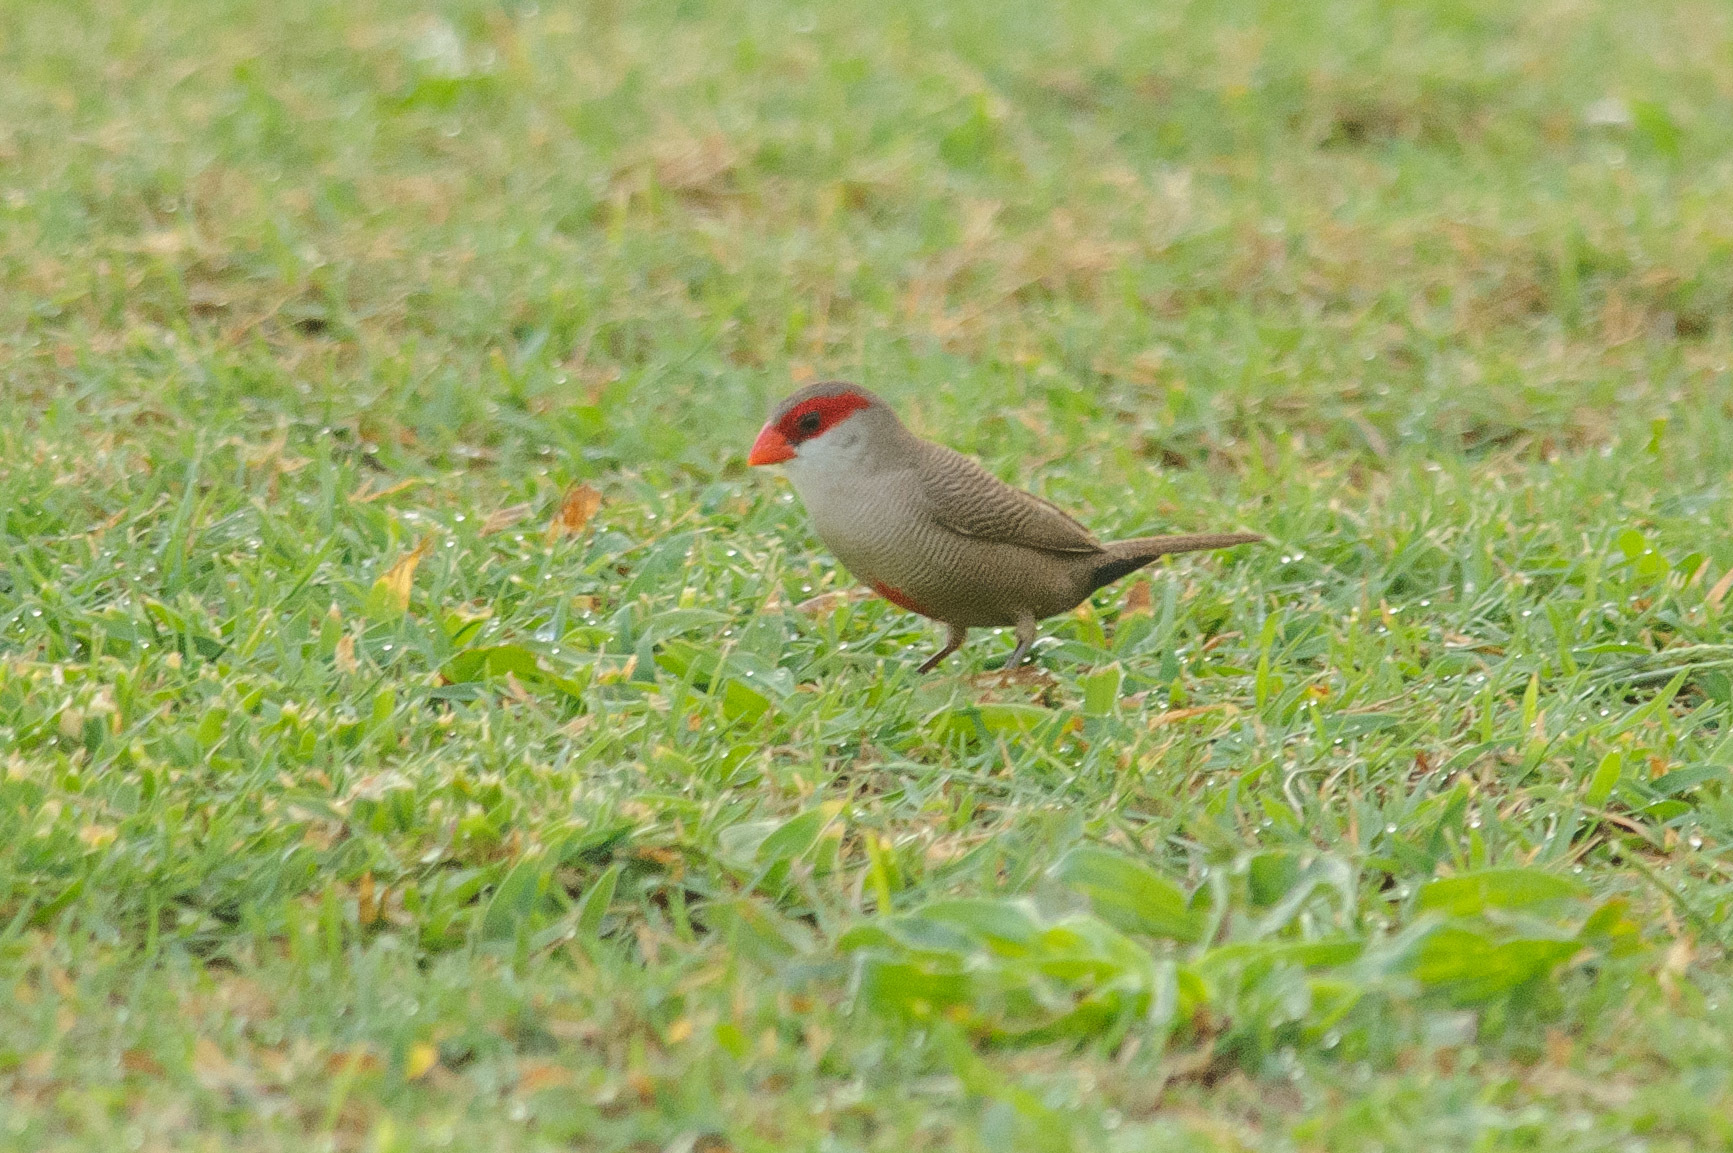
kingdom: Animalia
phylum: Chordata
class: Aves
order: Passeriformes
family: Estrildidae
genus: Estrilda
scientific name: Estrilda astrild
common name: Common waxbill
